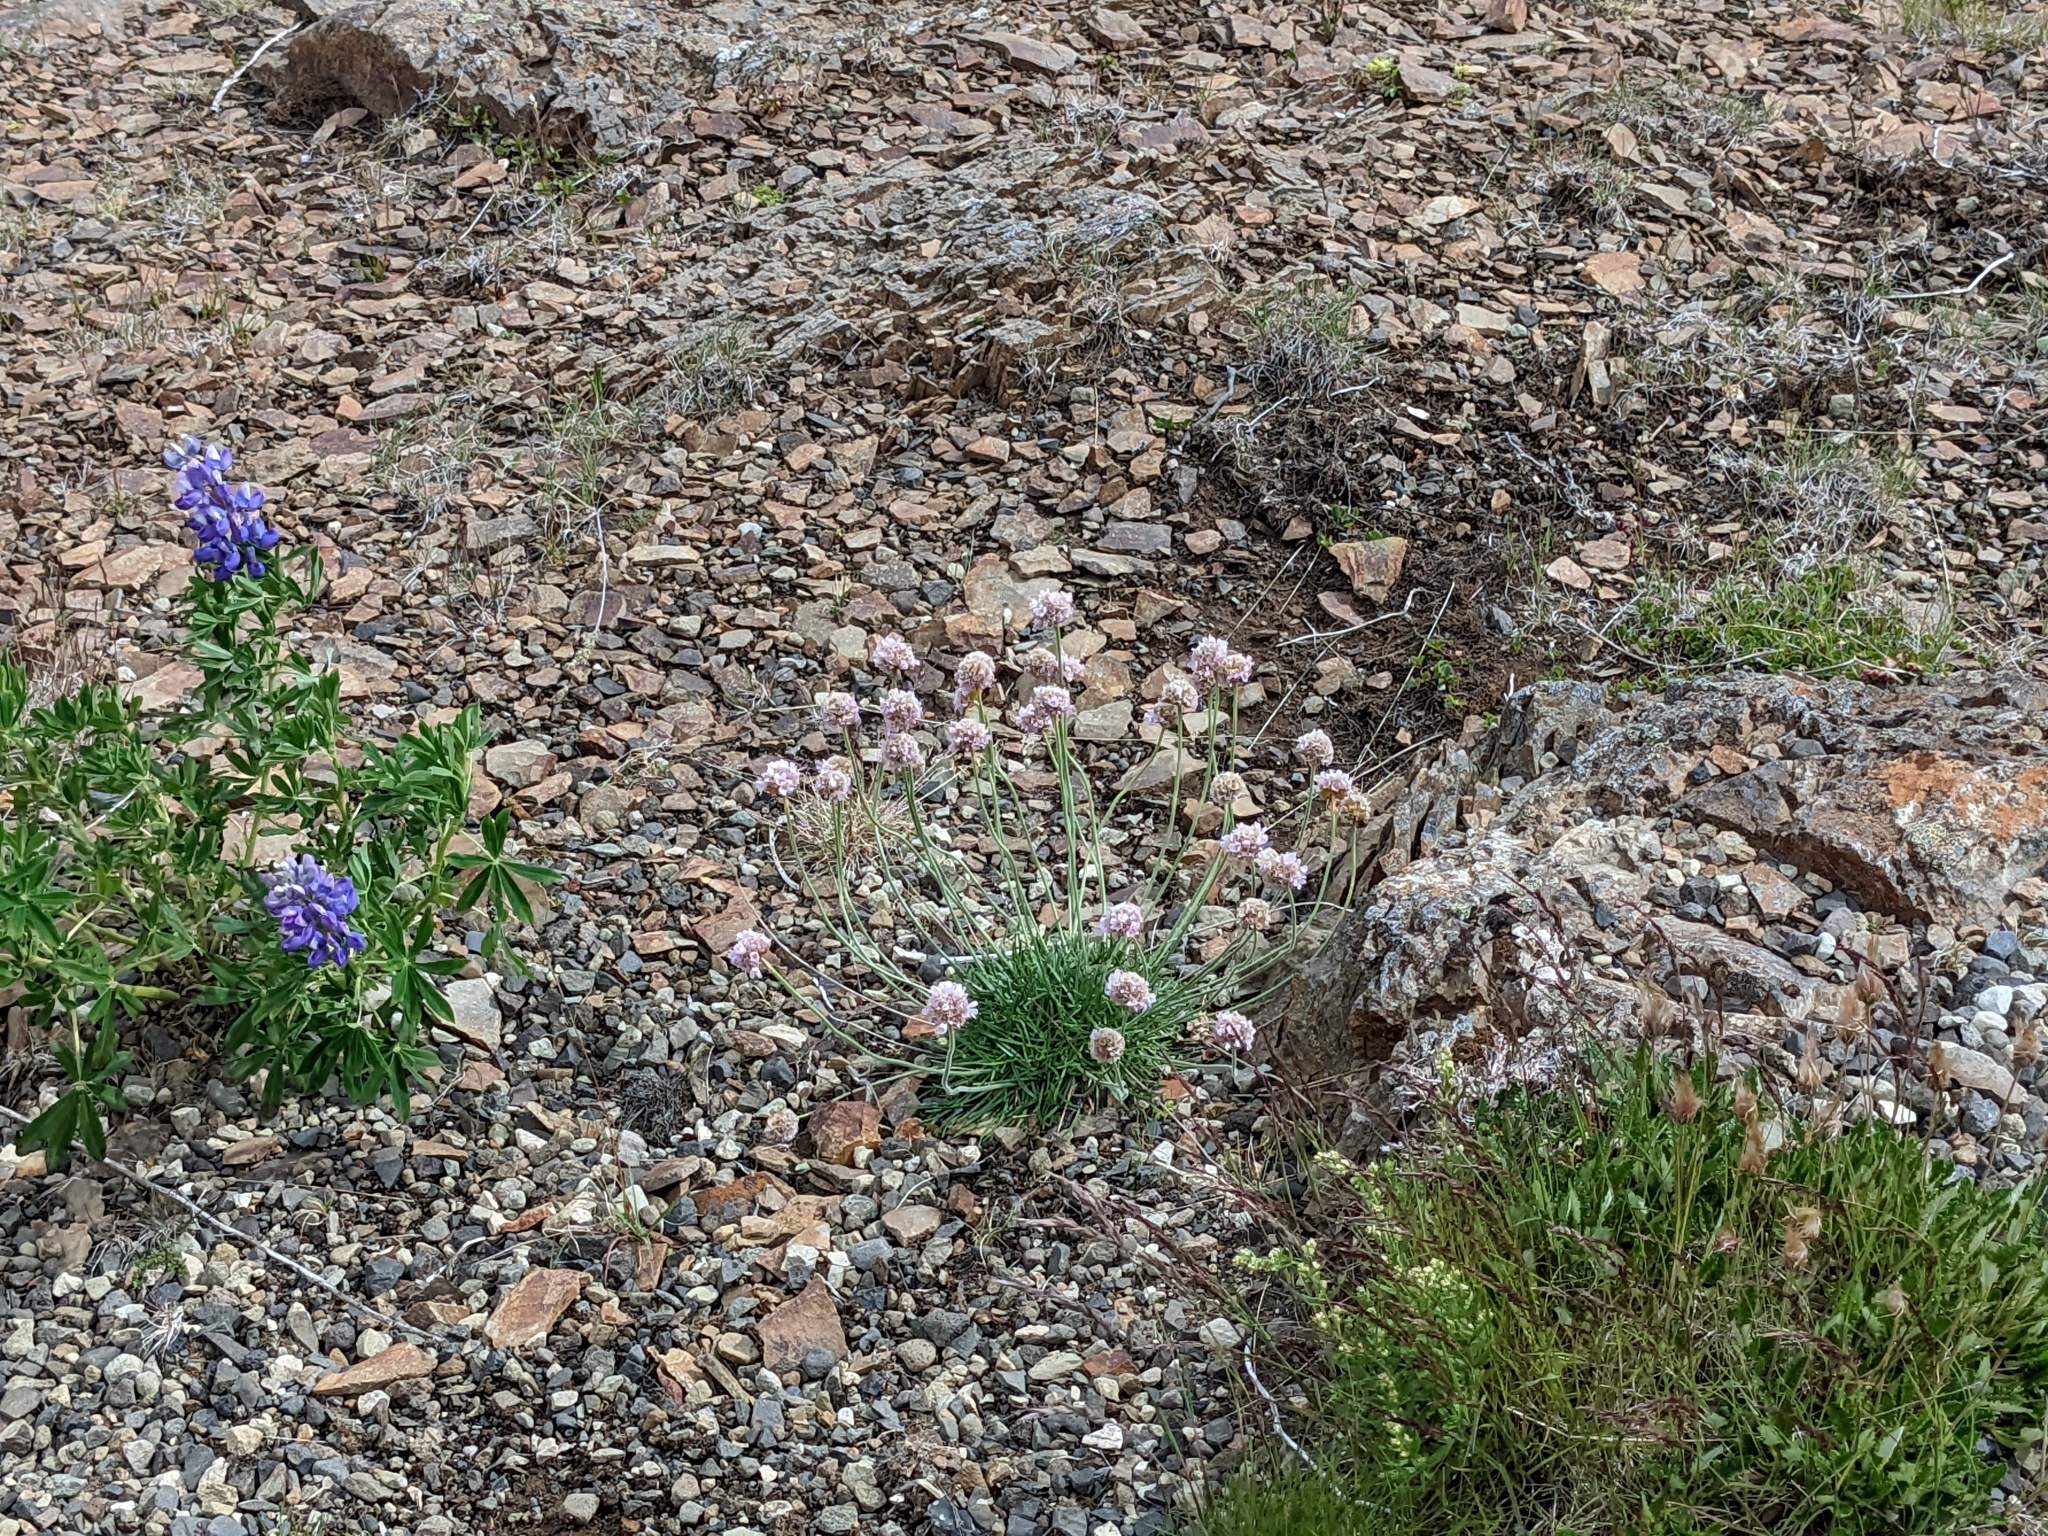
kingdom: Plantae
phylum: Tracheophyta
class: Magnoliopsida
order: Caryophyllales
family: Plumbaginaceae
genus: Armeria
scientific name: Armeria maritima
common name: Thrift
